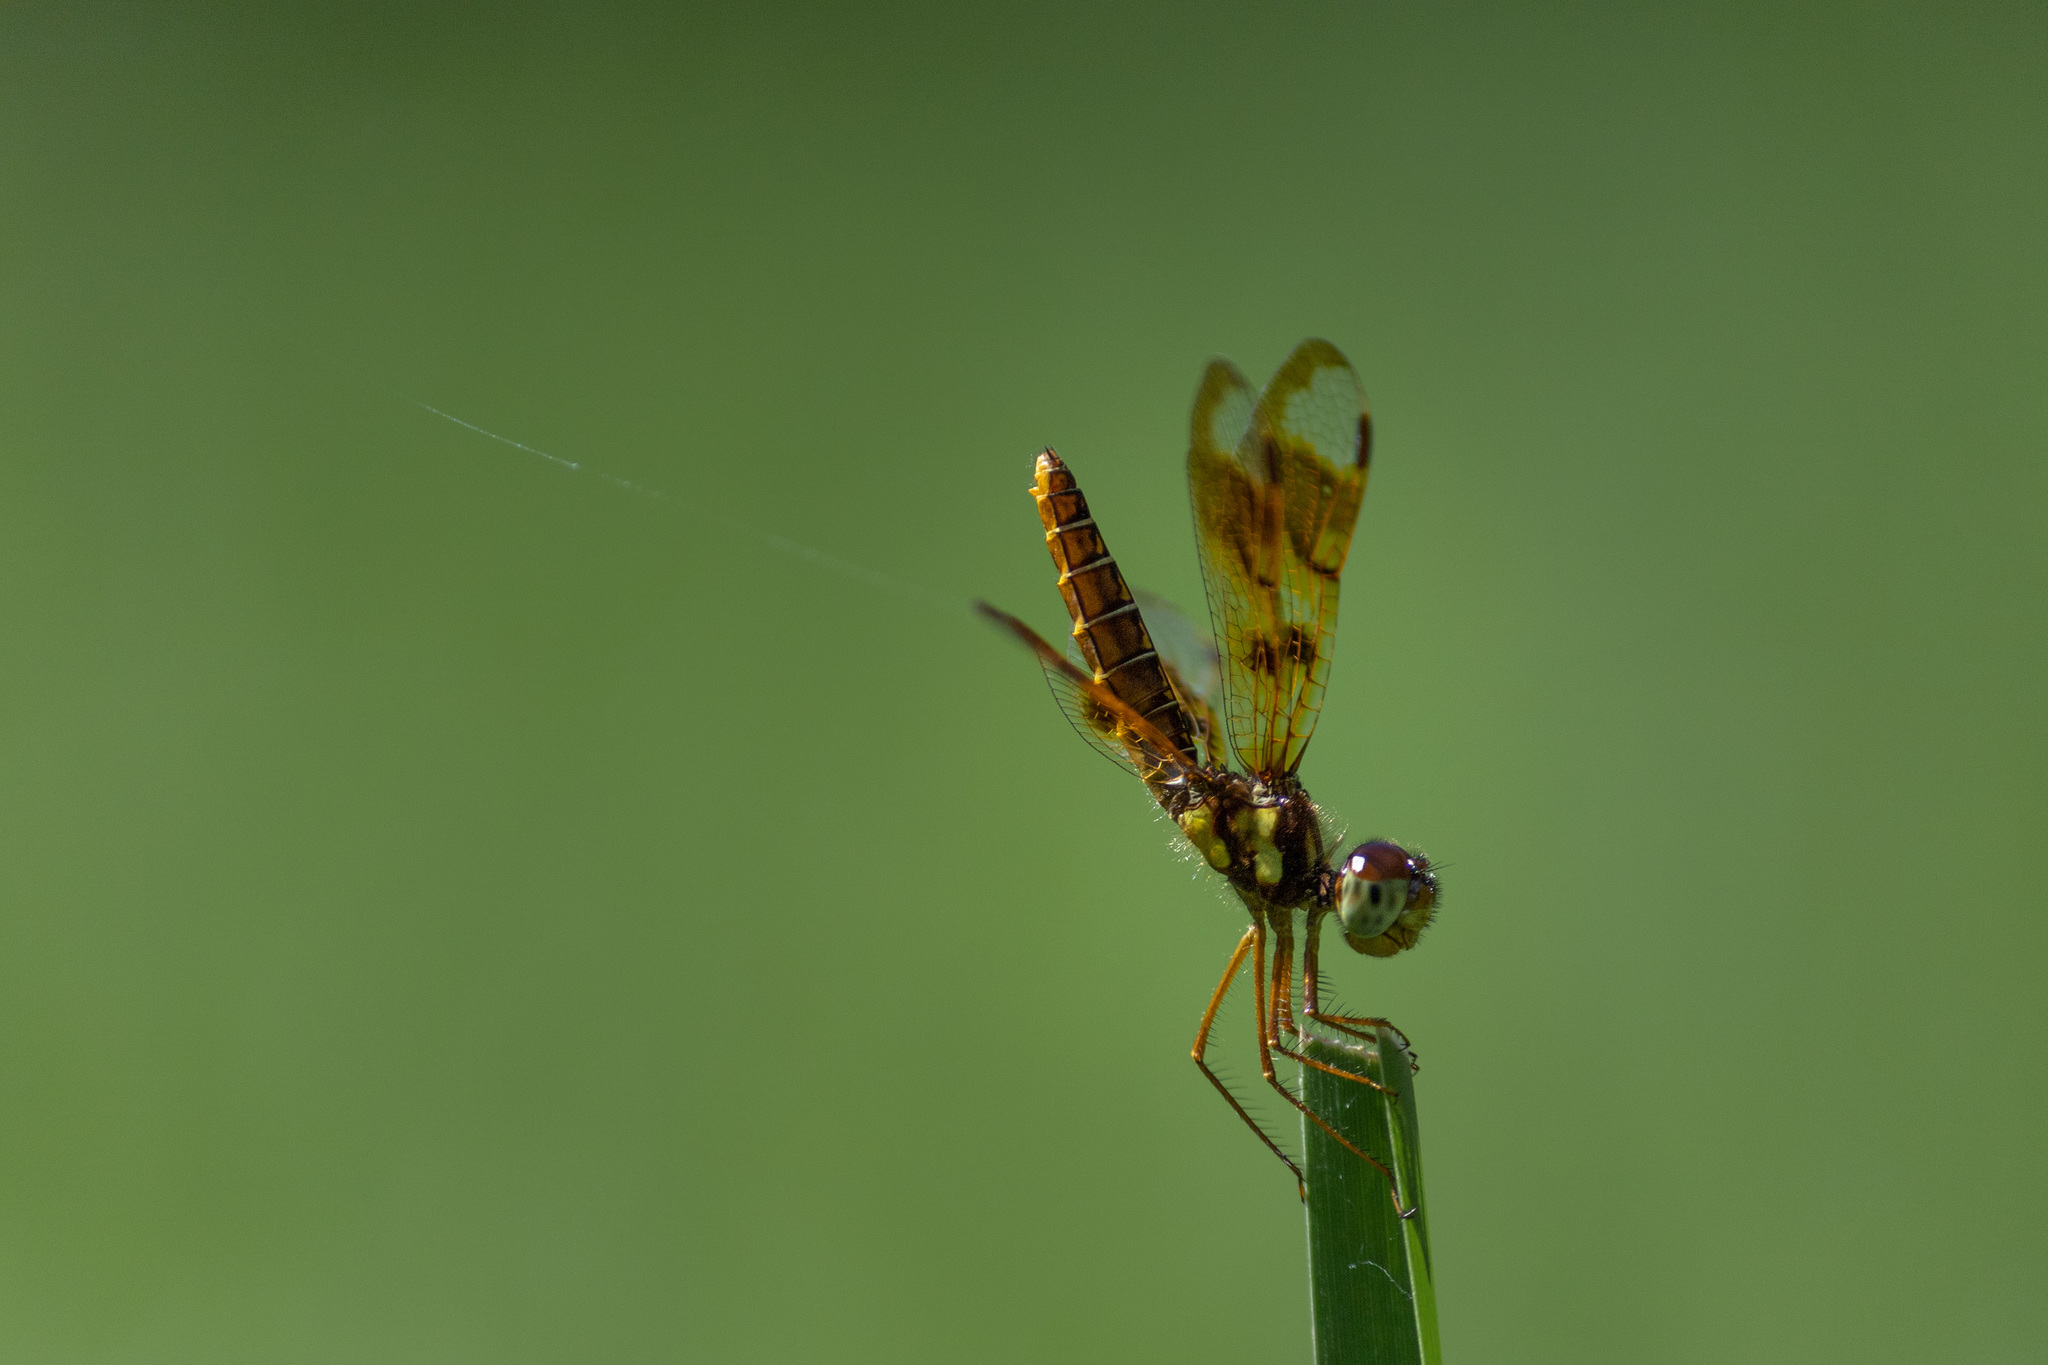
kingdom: Animalia
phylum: Arthropoda
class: Insecta
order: Odonata
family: Libellulidae
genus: Perithemis
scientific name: Perithemis tenera
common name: Eastern amberwing
